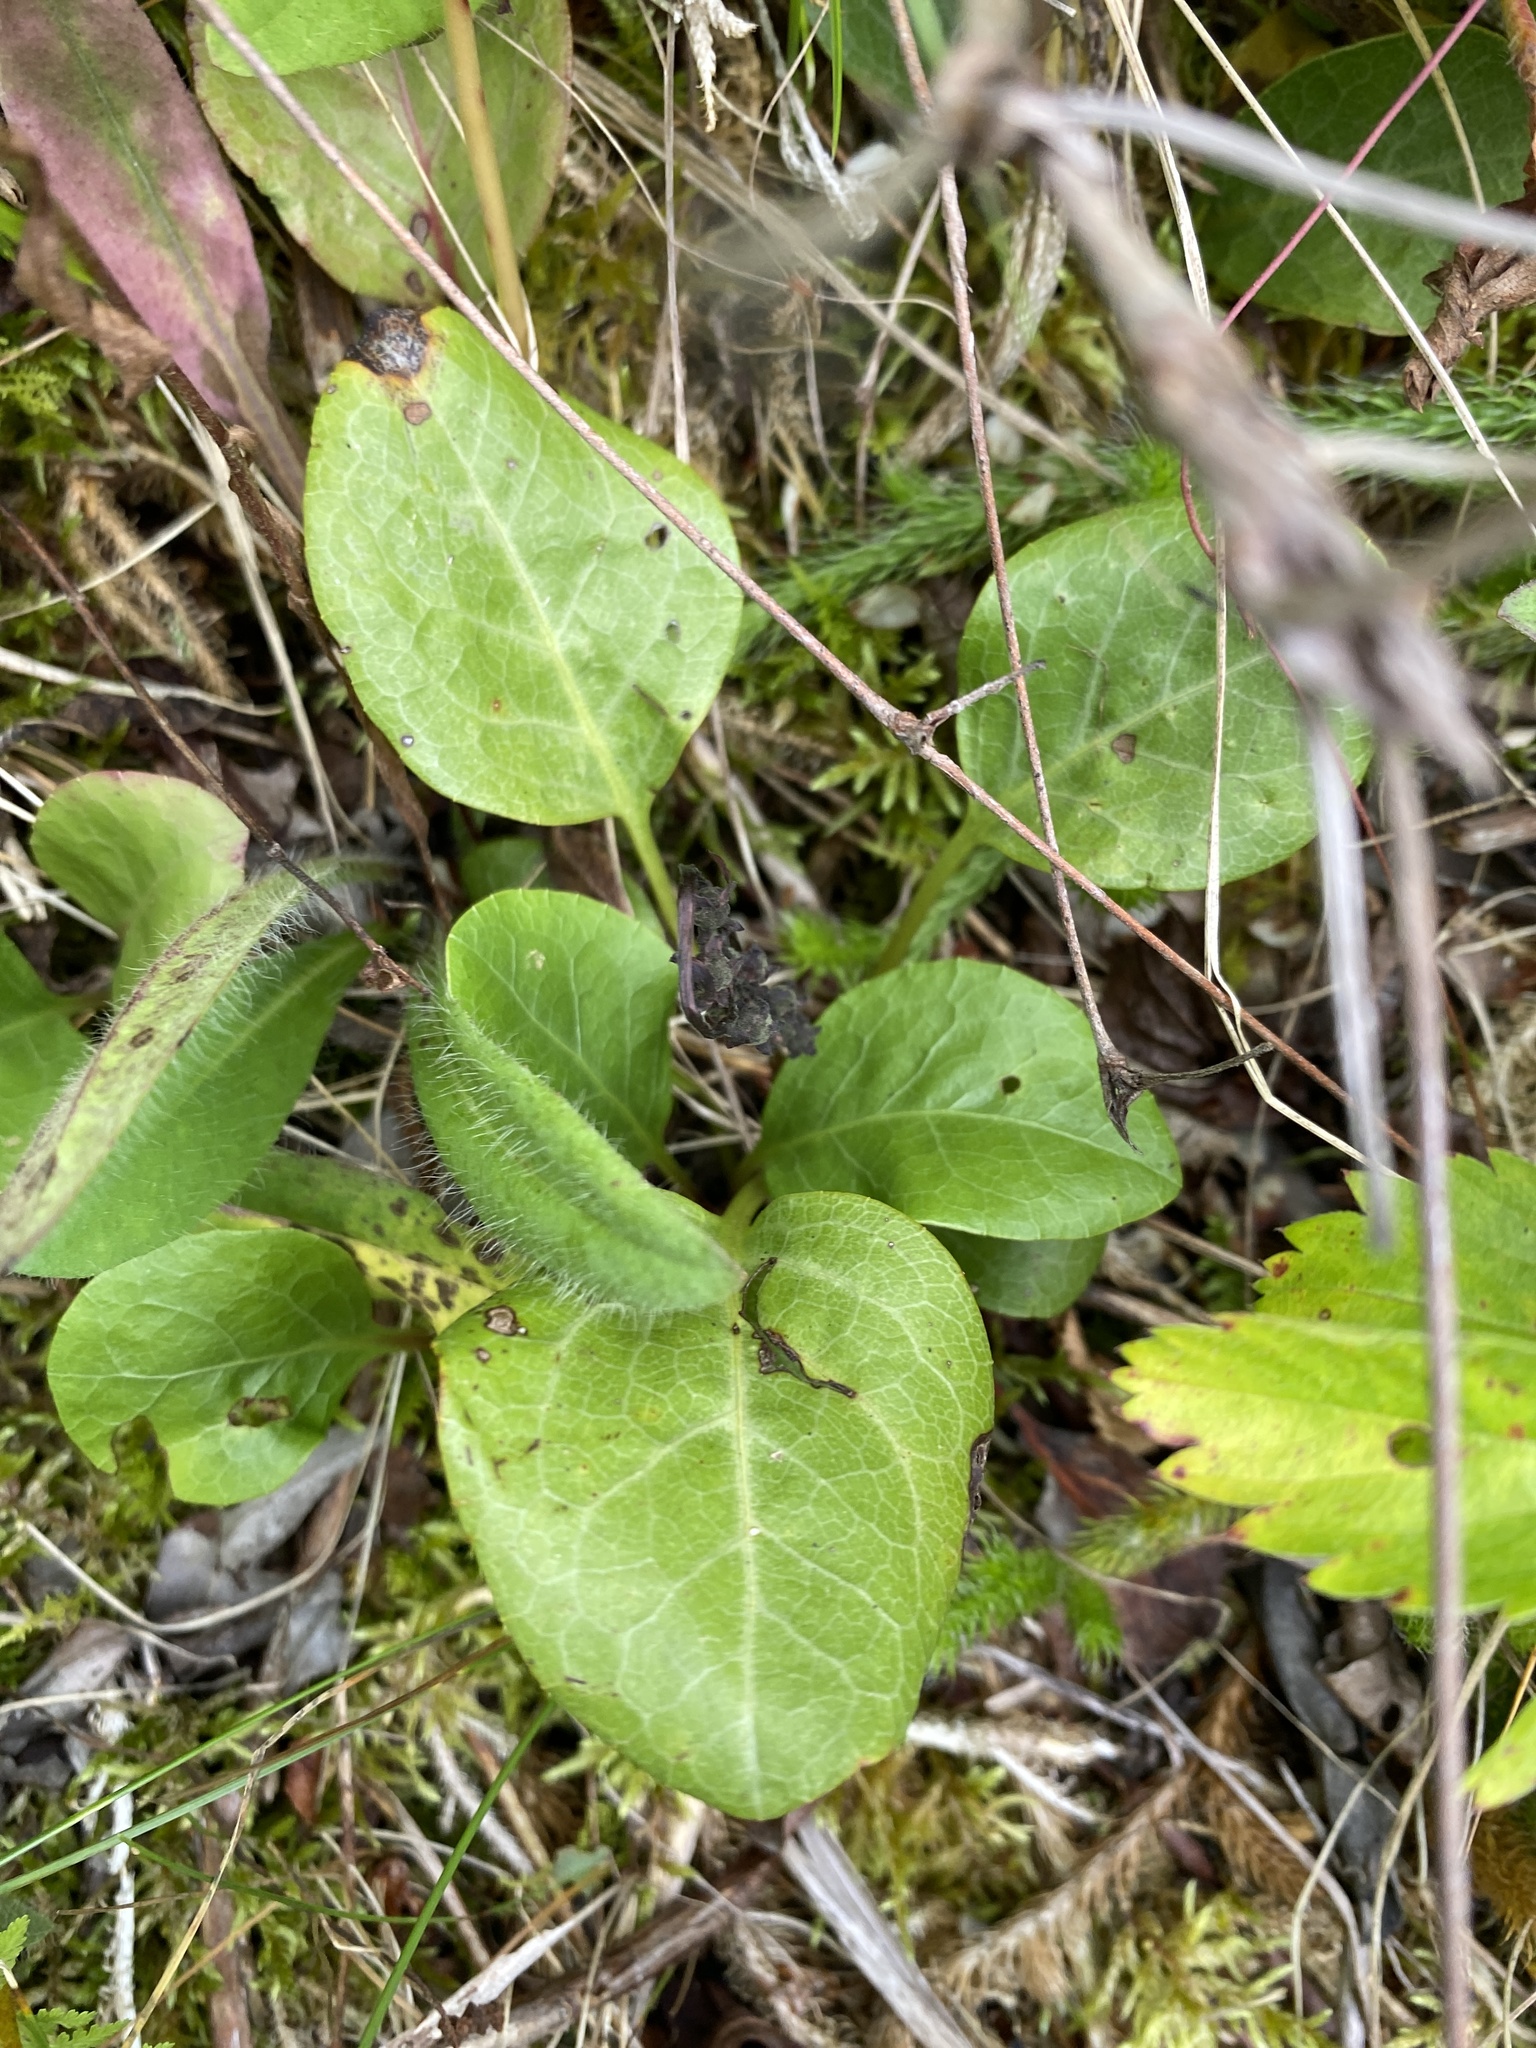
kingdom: Plantae
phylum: Tracheophyta
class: Magnoliopsida
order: Ericales
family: Ericaceae
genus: Pyrola
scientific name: Pyrola americana
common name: American wintergreen
